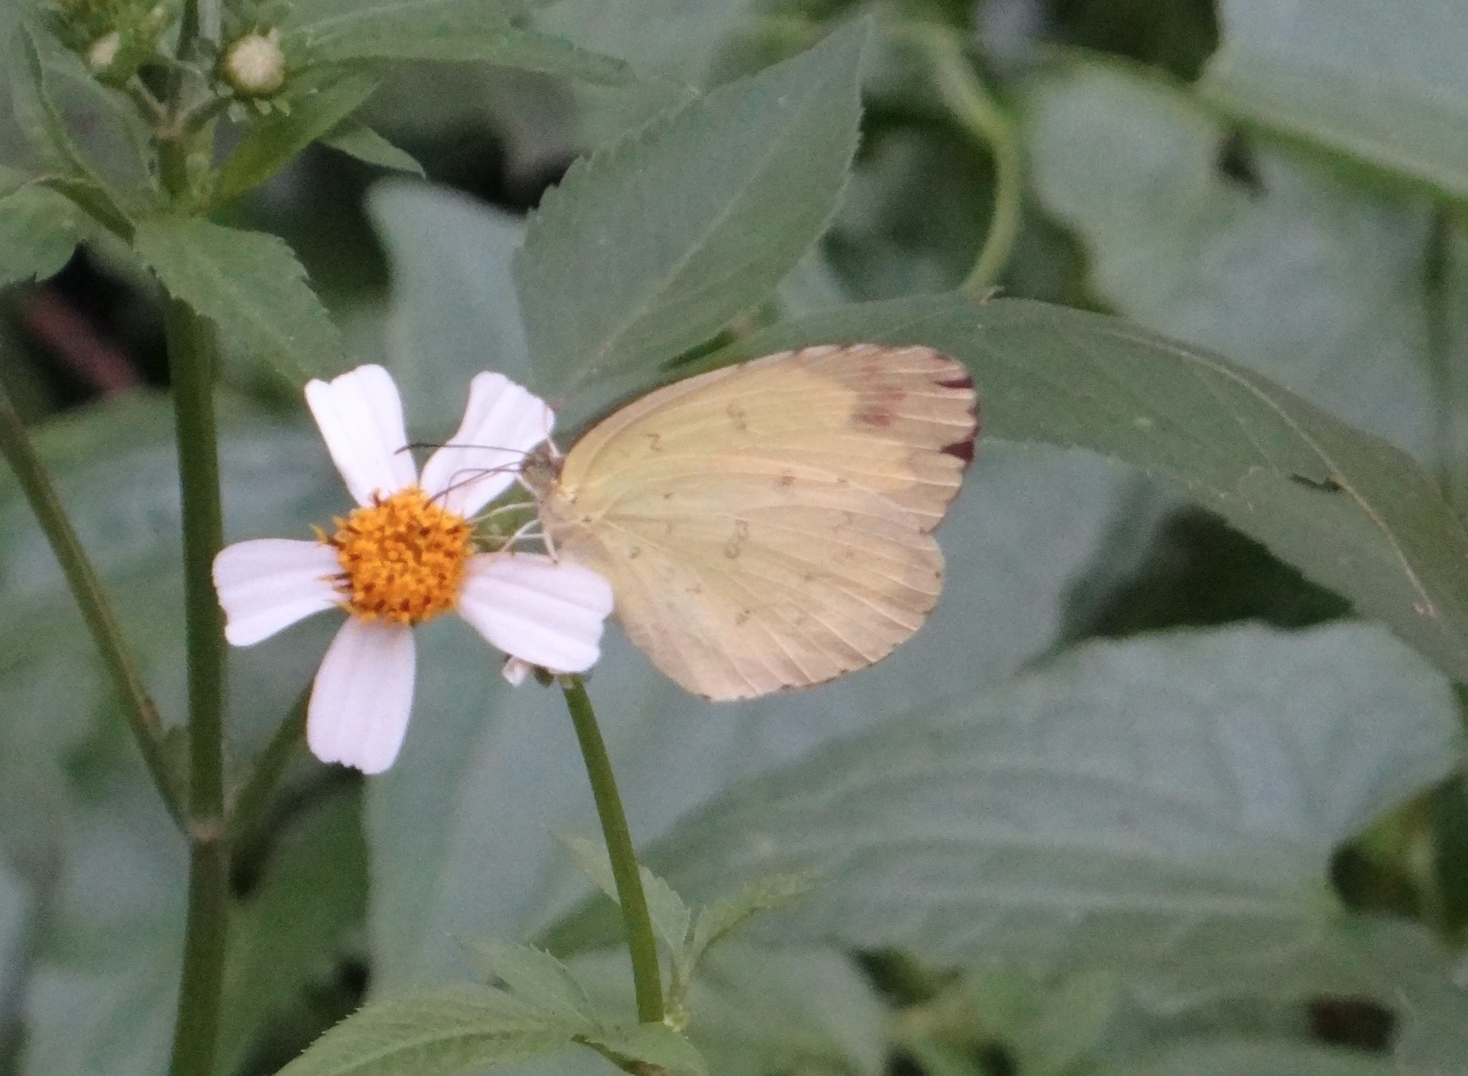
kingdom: Animalia
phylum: Arthropoda
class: Insecta
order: Lepidoptera
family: Pieridae
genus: Eurema
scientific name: Eurema blanda
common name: Three-spot grass yellow
